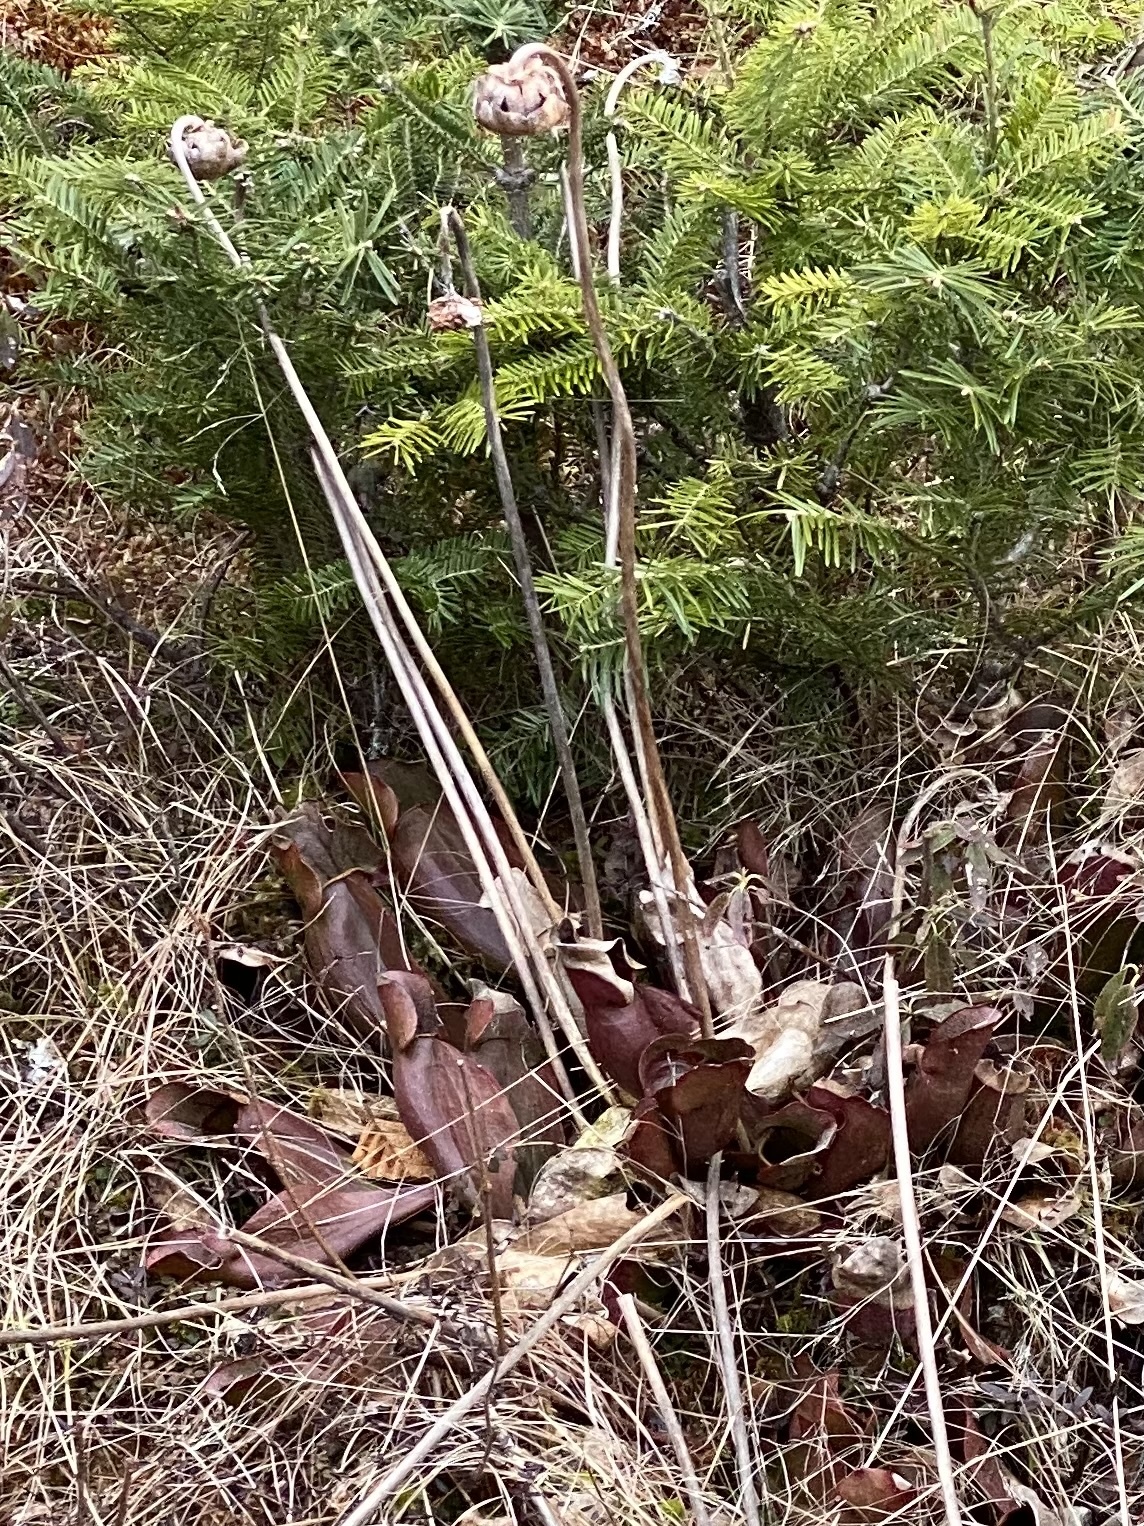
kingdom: Plantae
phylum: Tracheophyta
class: Magnoliopsida
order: Ericales
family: Sarraceniaceae
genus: Sarracenia
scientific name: Sarracenia purpurea
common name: Pitcherplant
